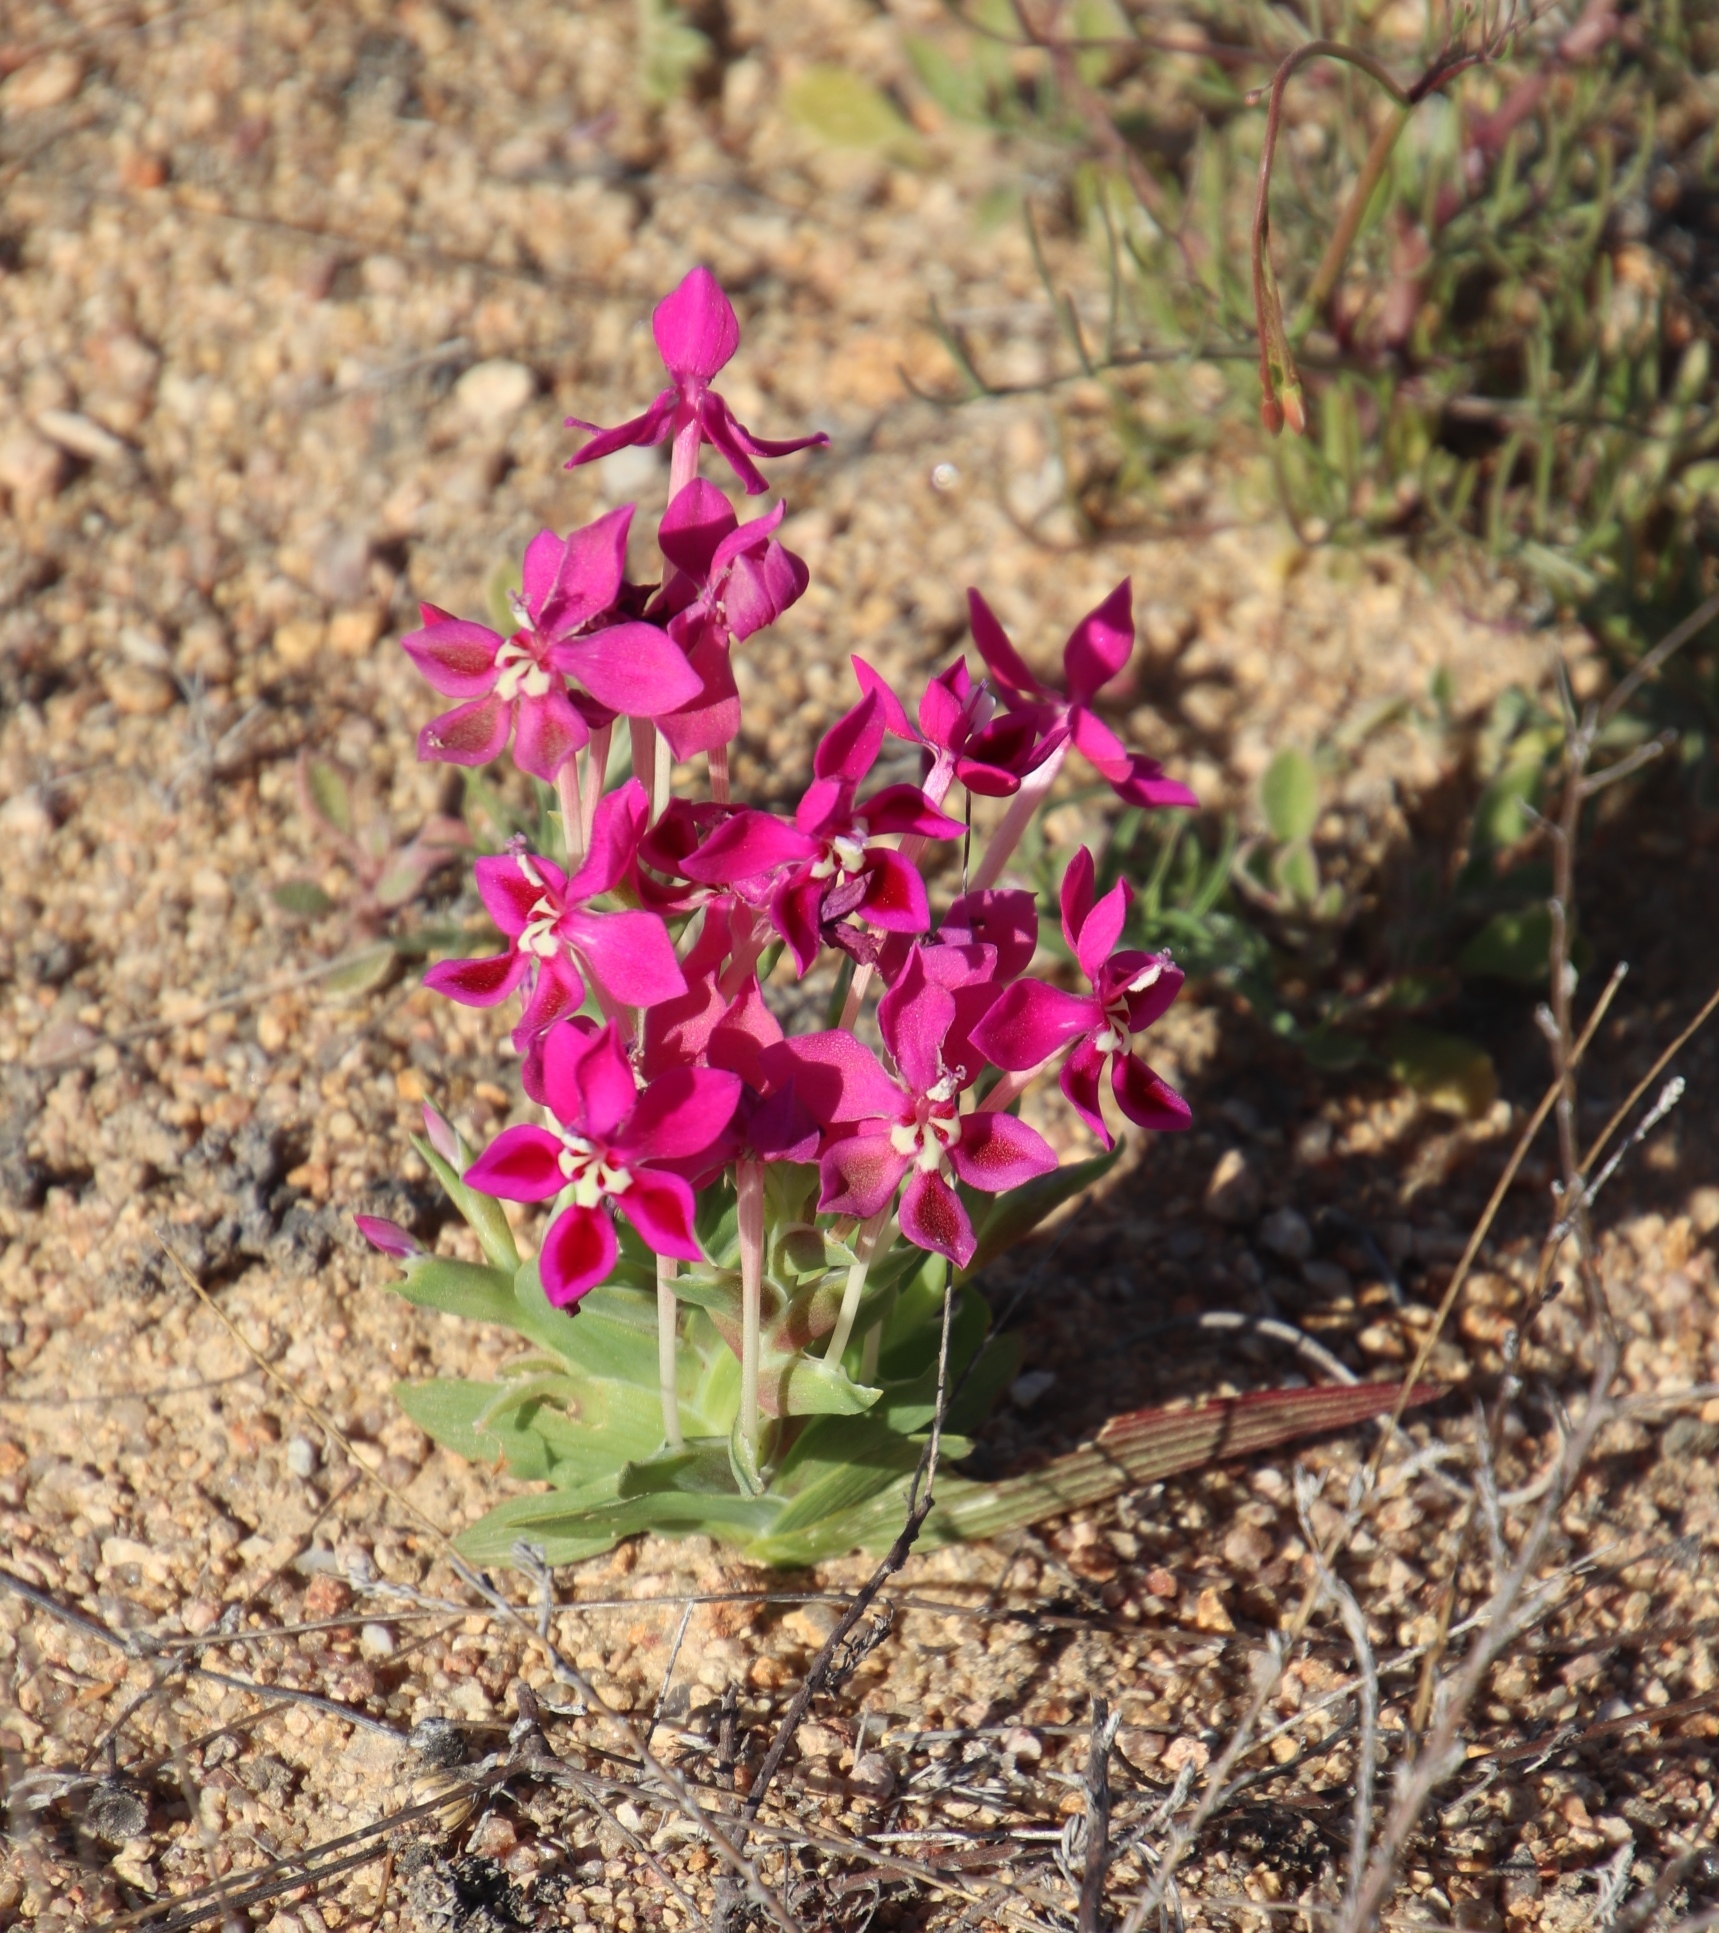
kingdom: Plantae
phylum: Tracheophyta
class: Liliopsida
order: Asparagales
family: Iridaceae
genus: Lapeirousia
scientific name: Lapeirousia silenoides
